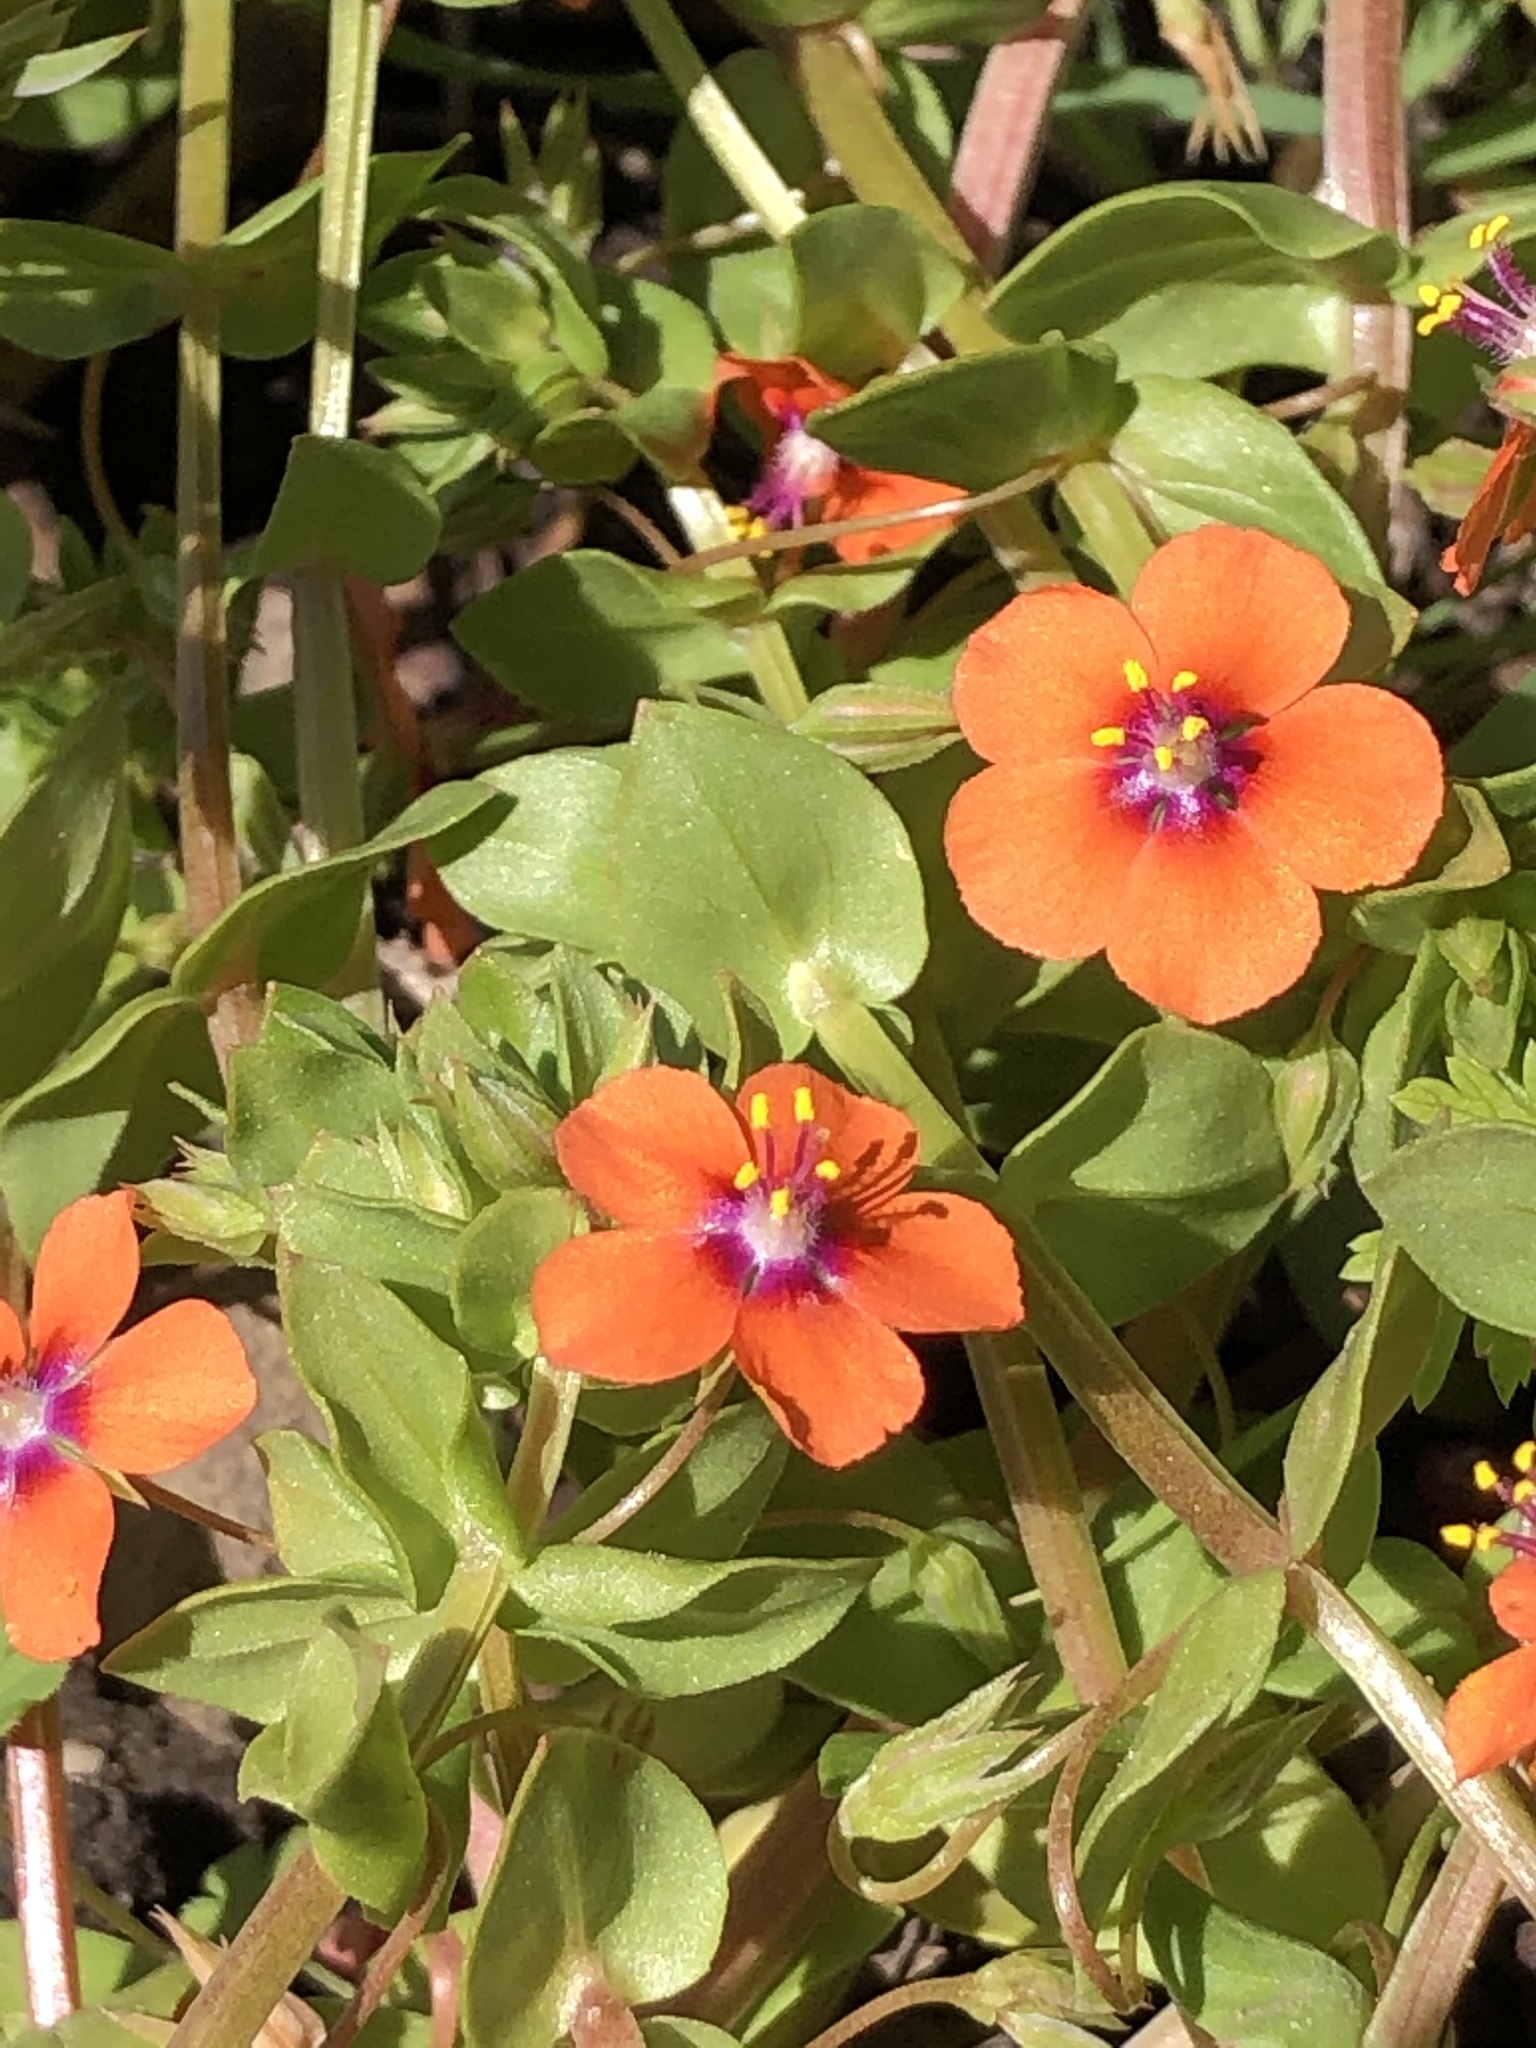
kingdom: Plantae
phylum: Tracheophyta
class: Magnoliopsida
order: Ericales
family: Primulaceae
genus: Lysimachia
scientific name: Lysimachia arvensis
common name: Scarlet pimpernel
